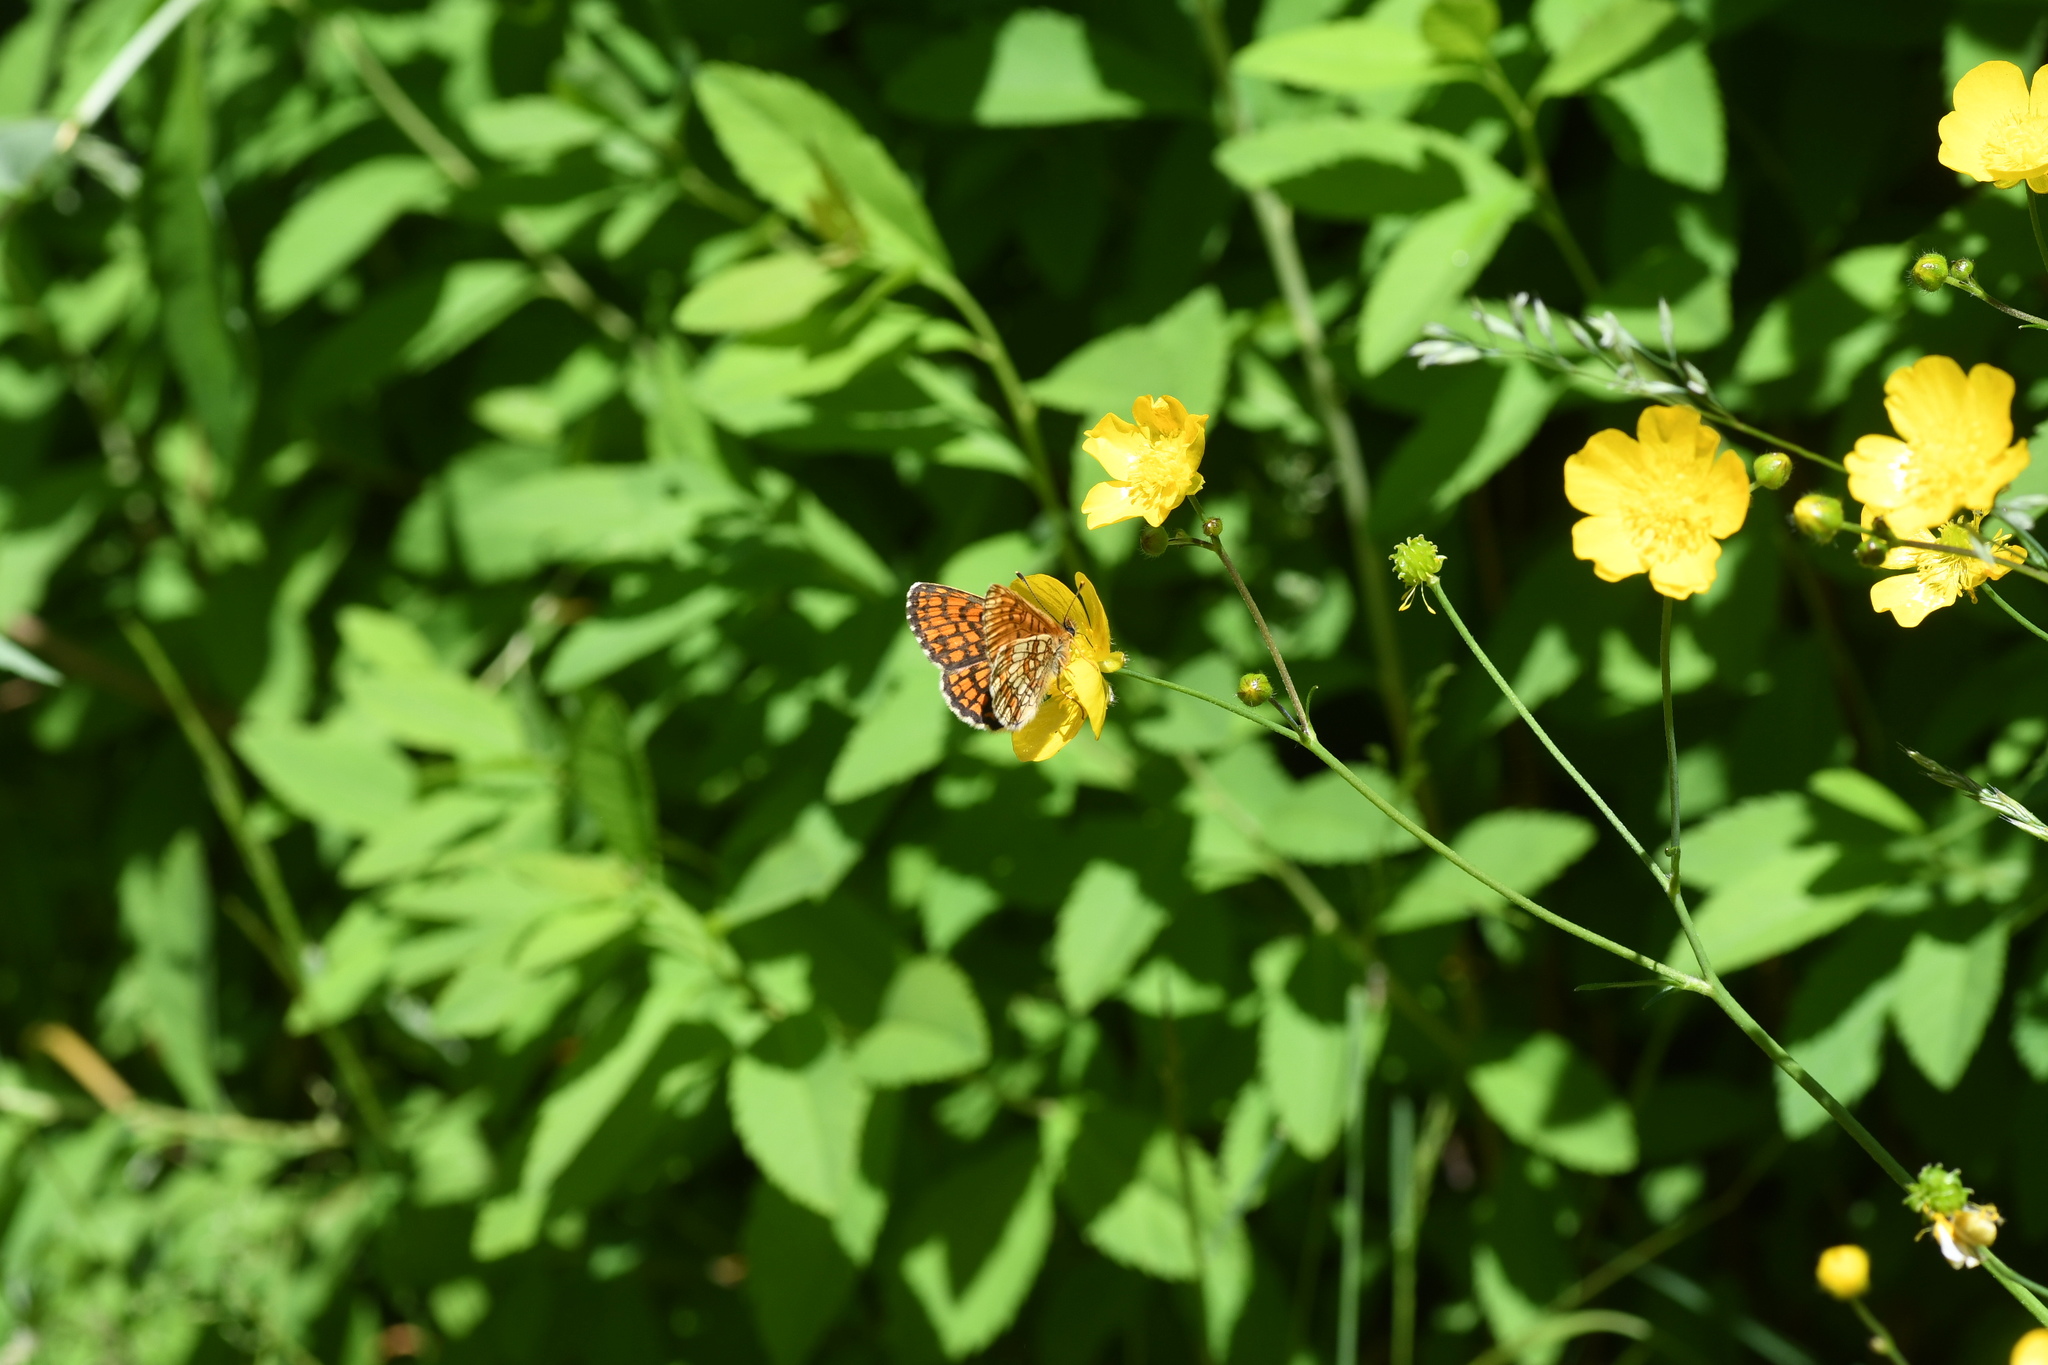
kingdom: Animalia
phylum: Arthropoda
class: Insecta
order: Lepidoptera
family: Nymphalidae
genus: Melitaea
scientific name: Melitaea athalia
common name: Heath fritillary
